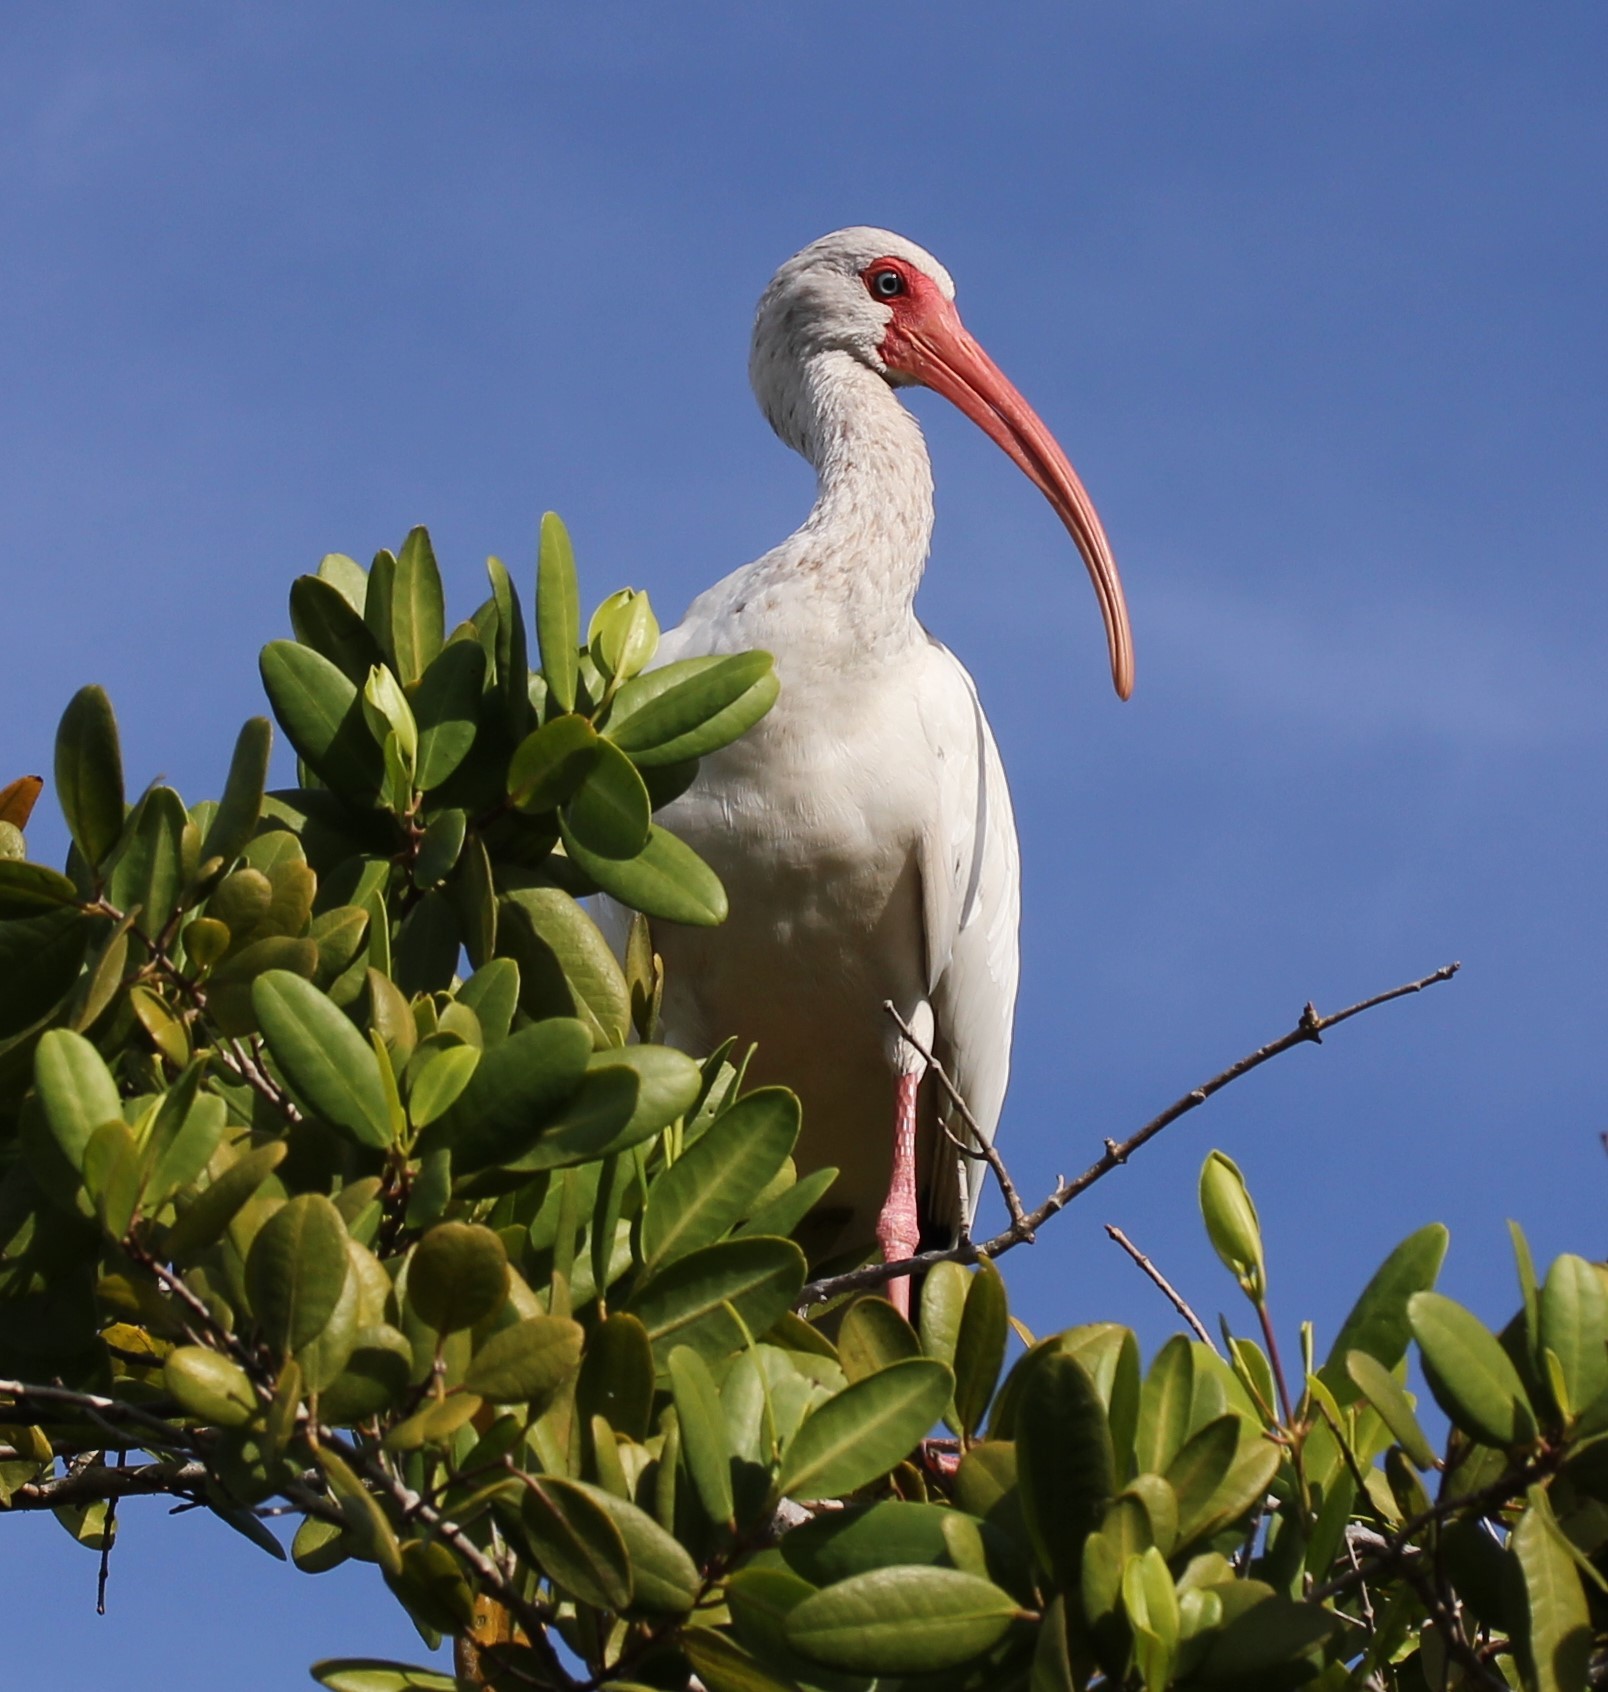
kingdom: Animalia
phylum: Chordata
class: Aves
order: Pelecaniformes
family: Threskiornithidae
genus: Eudocimus
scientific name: Eudocimus albus
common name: White ibis
